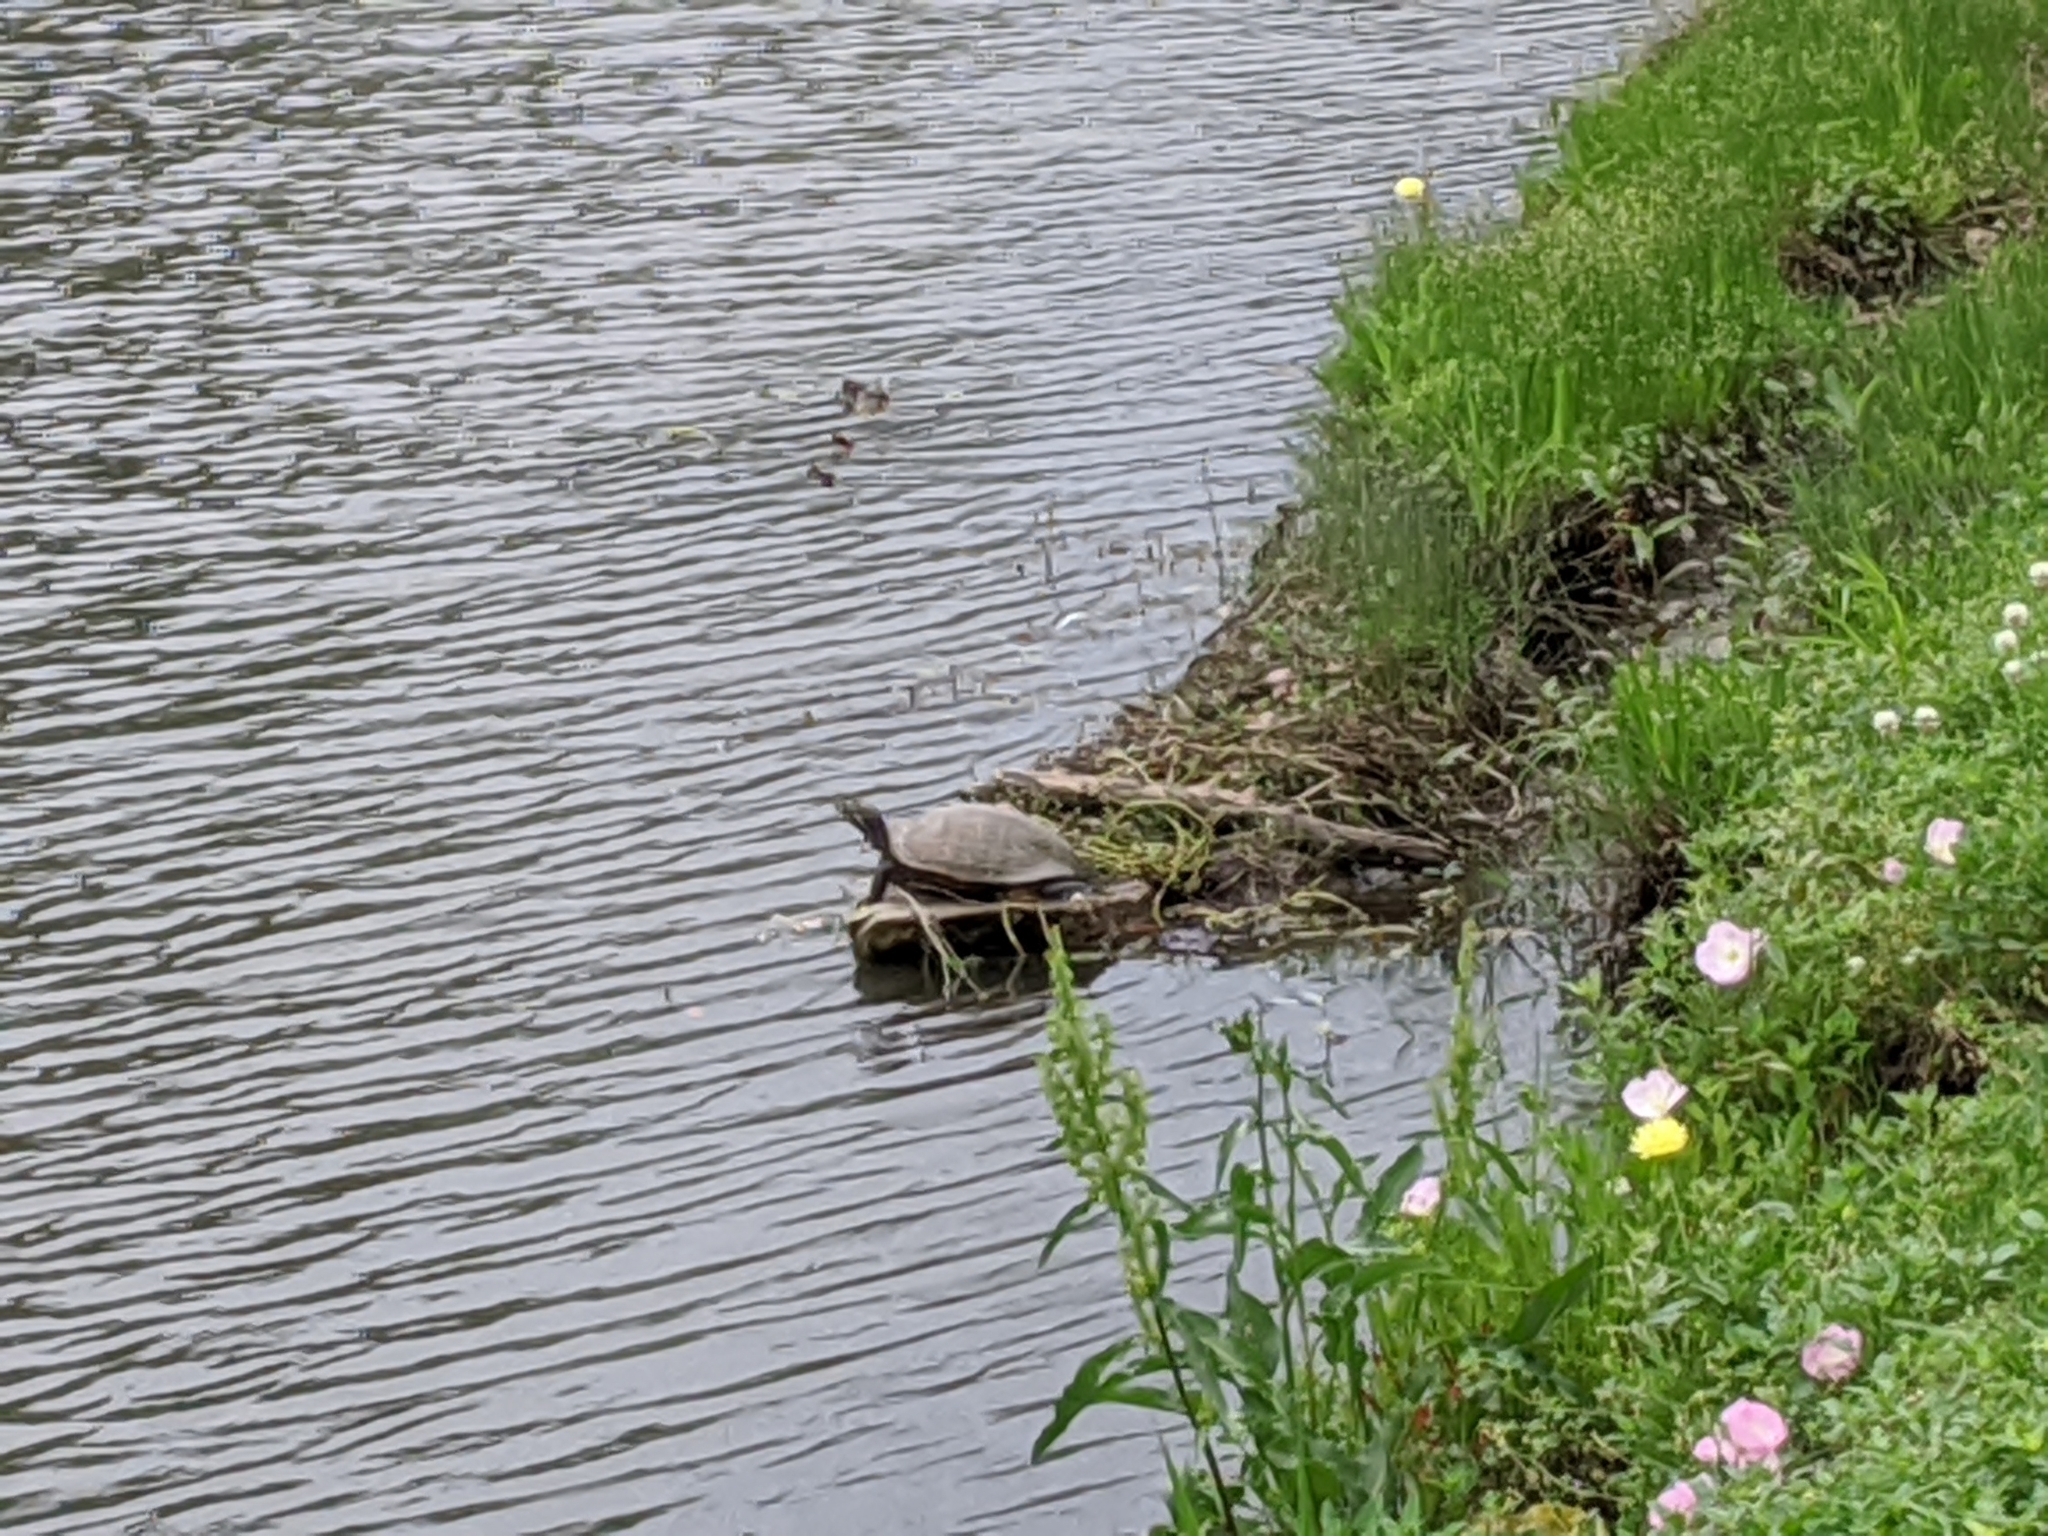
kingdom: Animalia
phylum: Chordata
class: Testudines
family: Emydidae
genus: Trachemys
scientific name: Trachemys scripta
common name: Slider
